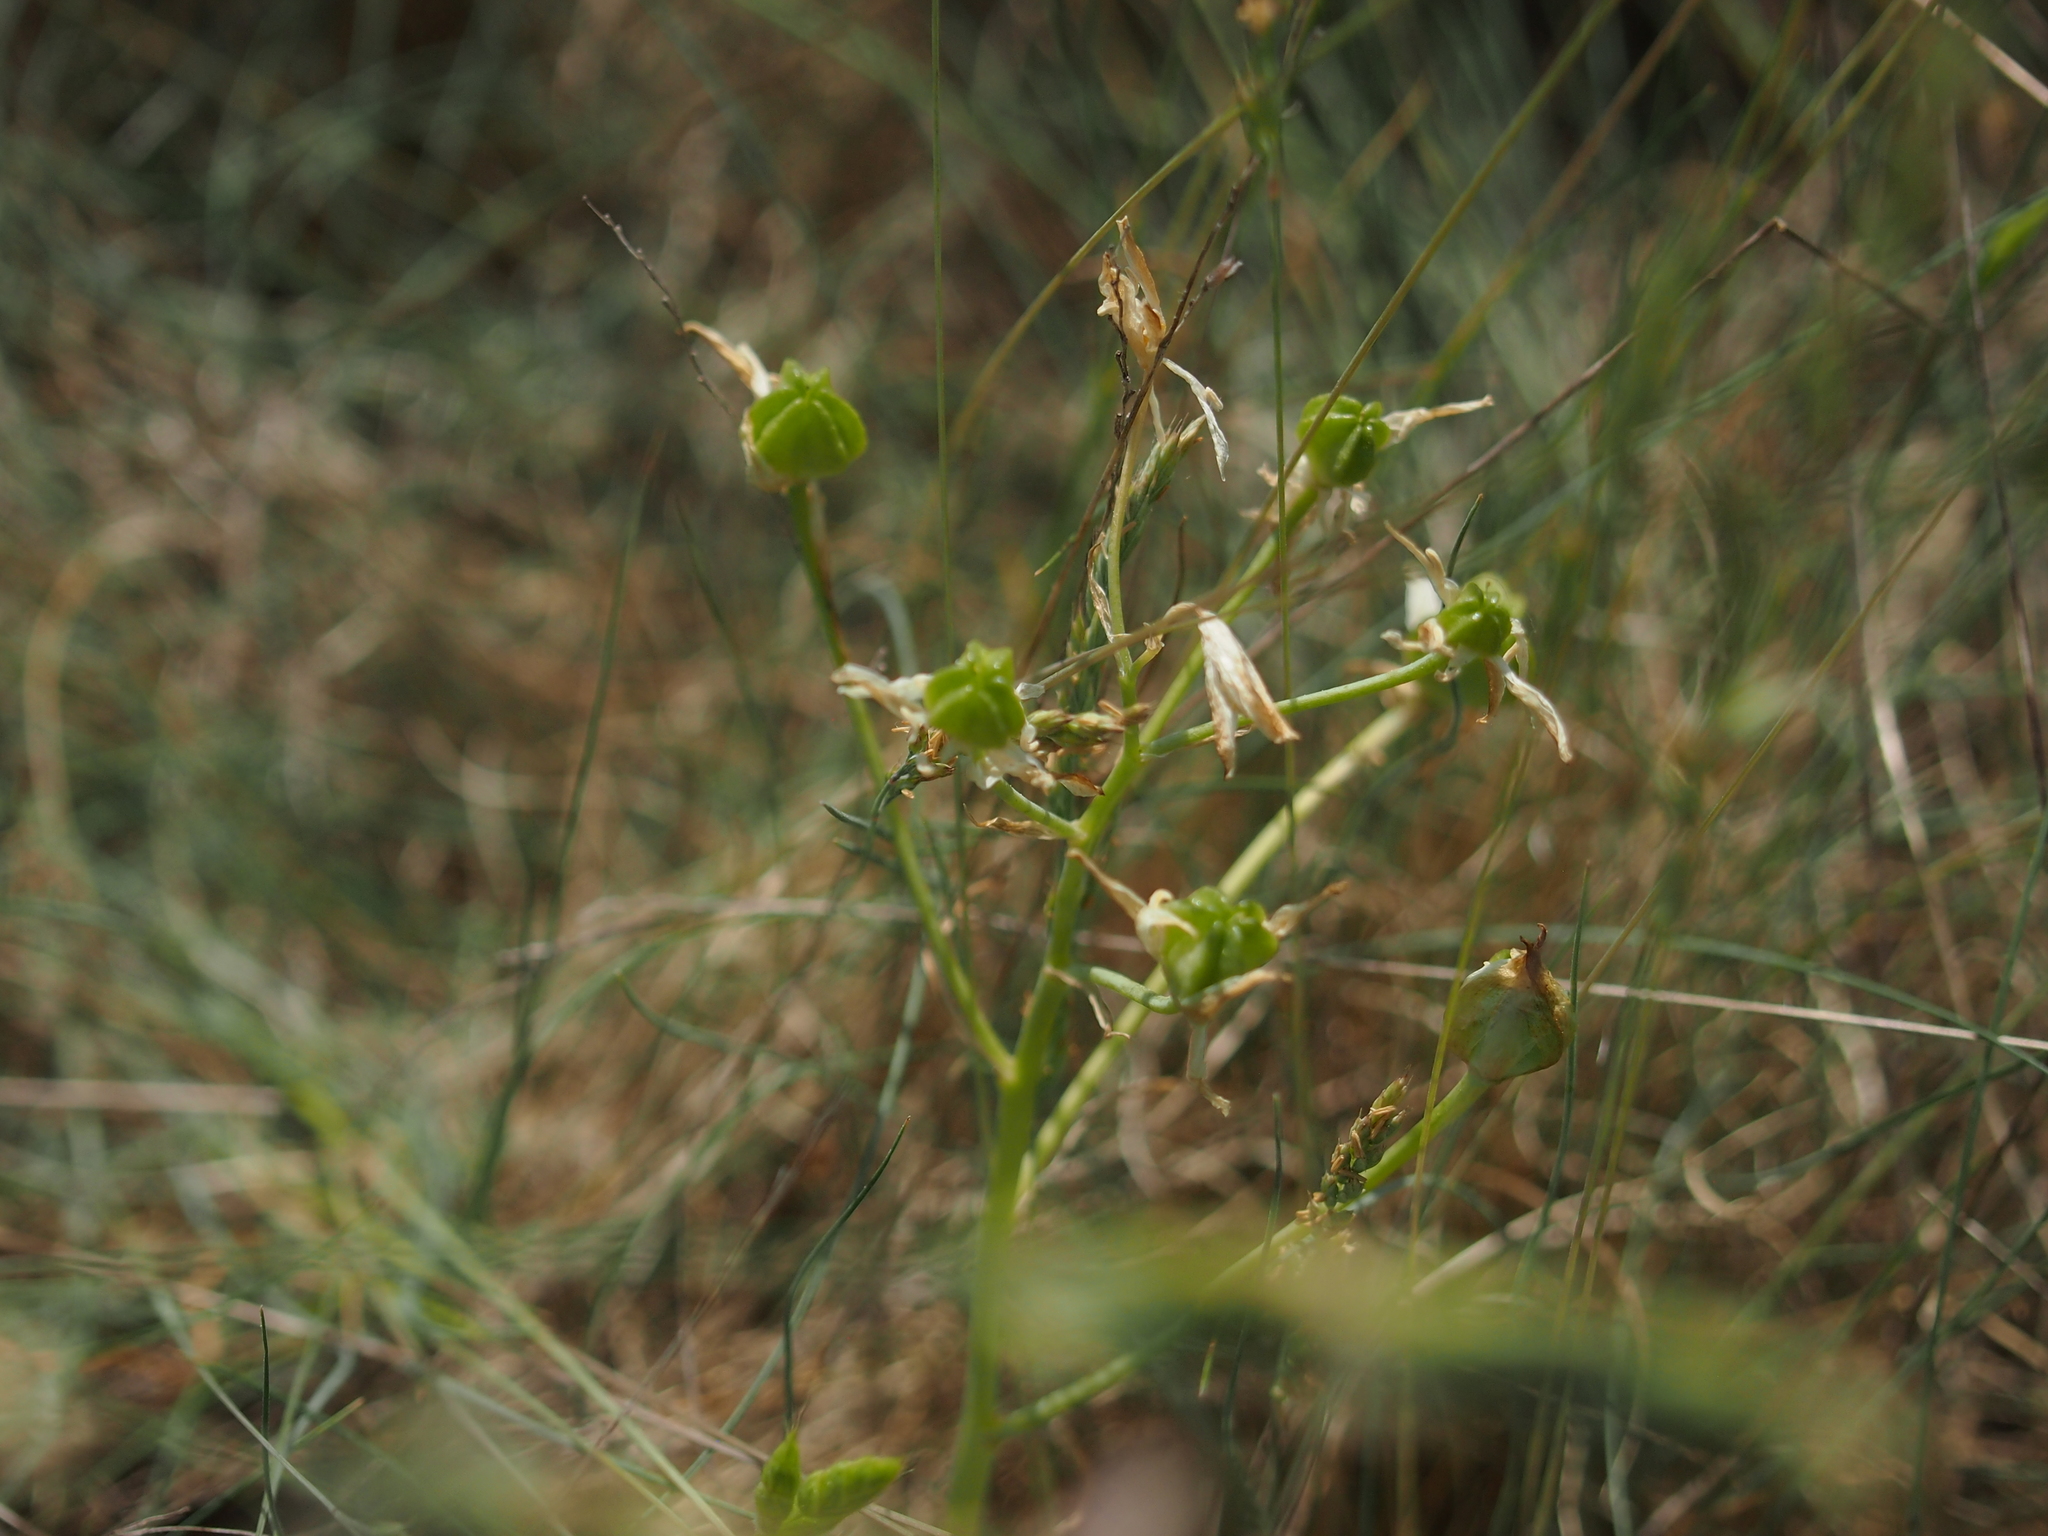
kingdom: Plantae
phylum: Tracheophyta
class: Liliopsida
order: Asparagales
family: Asparagaceae
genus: Ornithogalum
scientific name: Ornithogalum umbellatum
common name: Garden star-of-bethlehem
